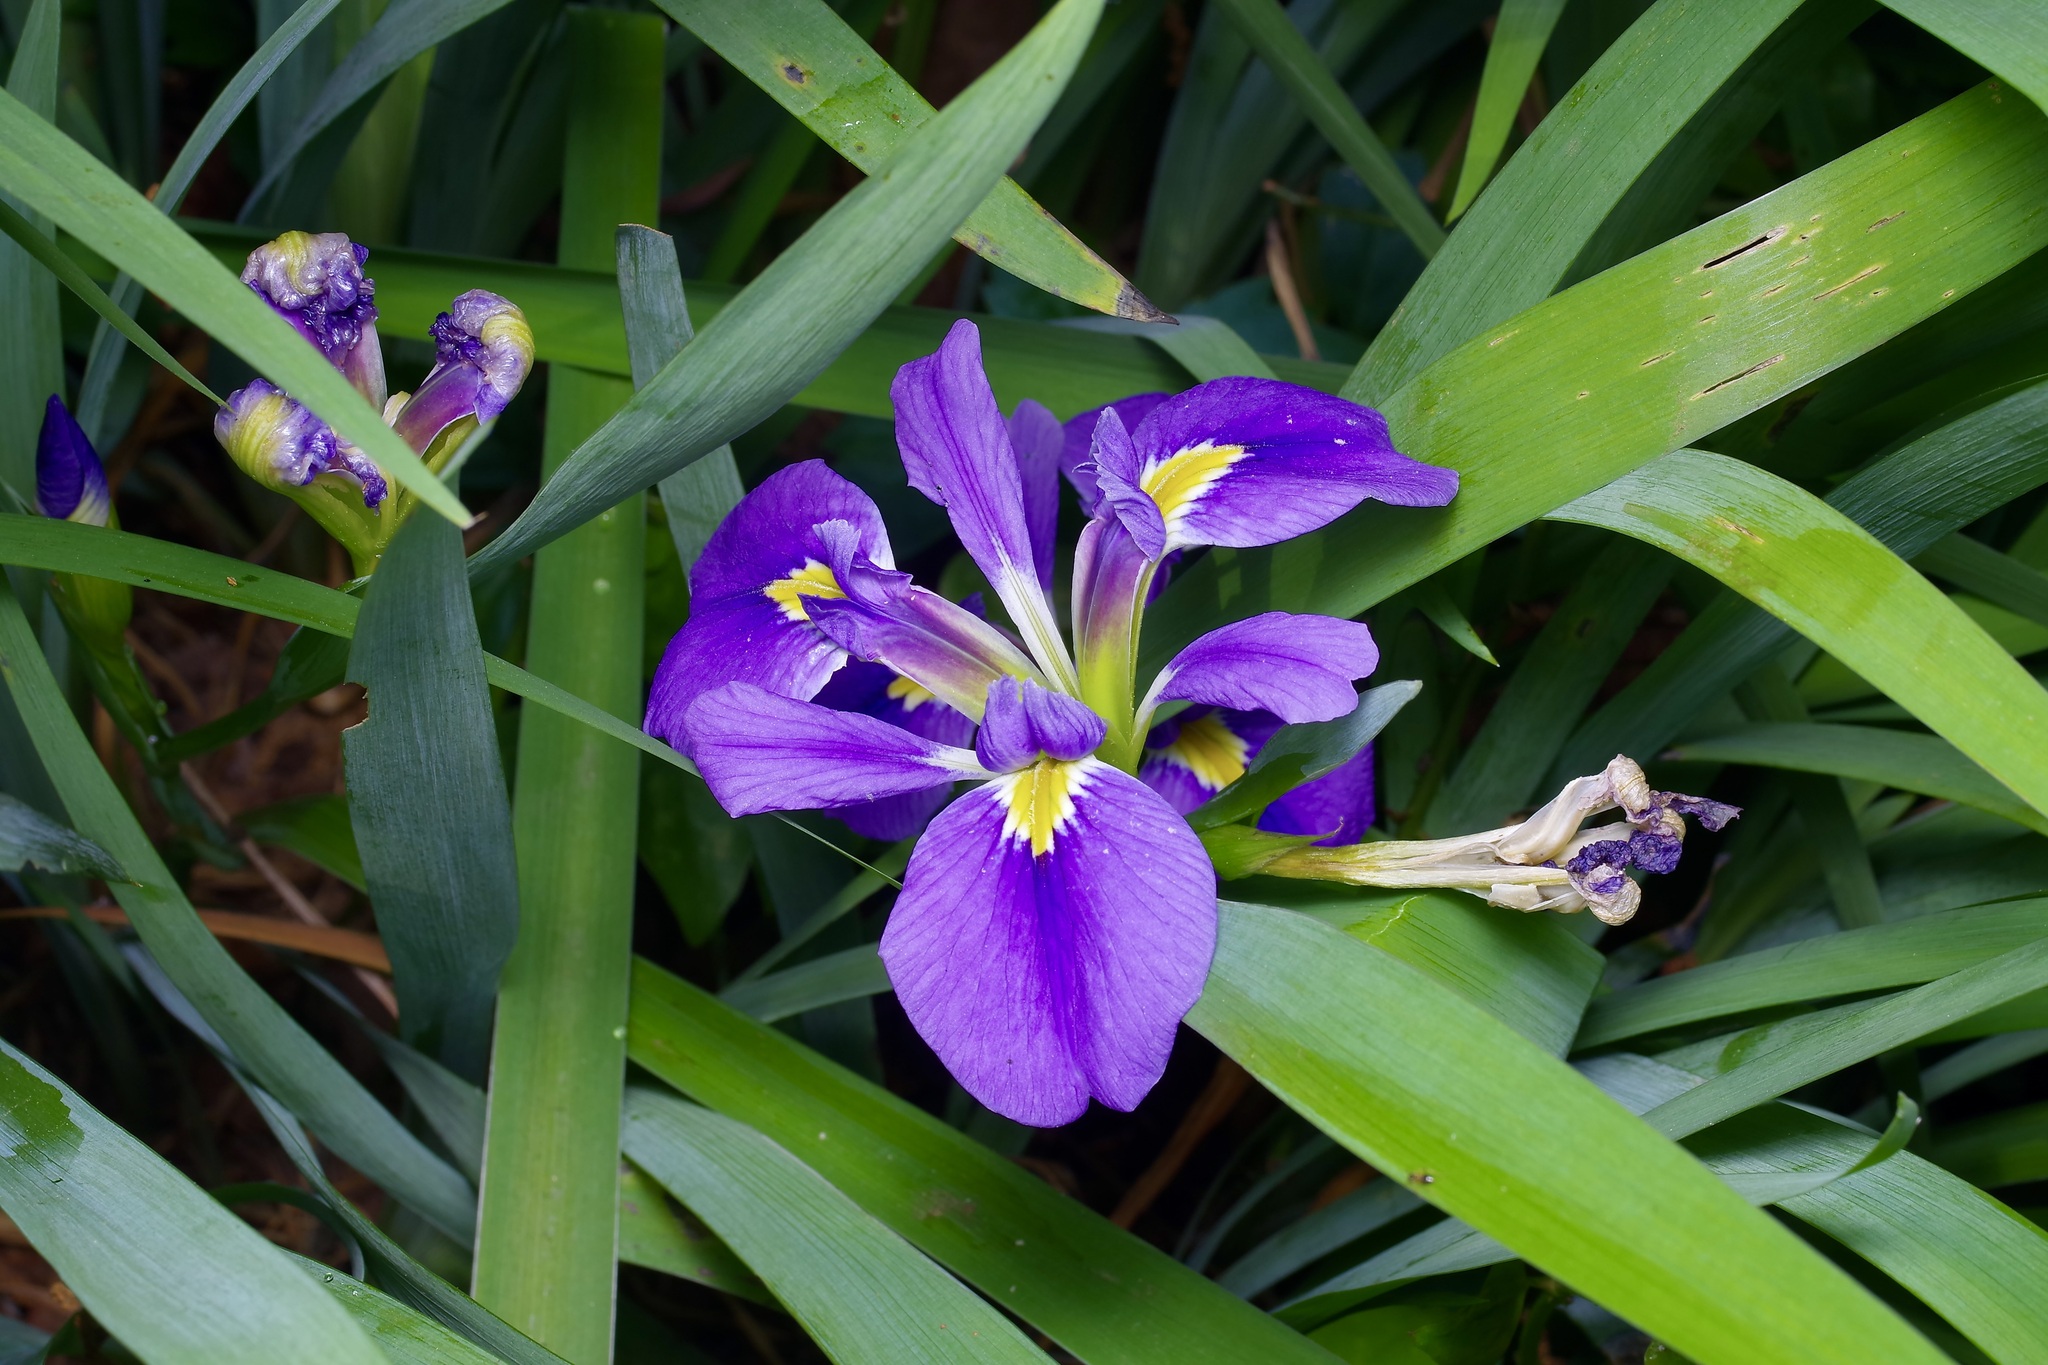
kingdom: Plantae
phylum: Tracheophyta
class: Liliopsida
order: Asparagales
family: Iridaceae
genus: Iris
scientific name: Iris brevicaulis
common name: Zigzag iris
